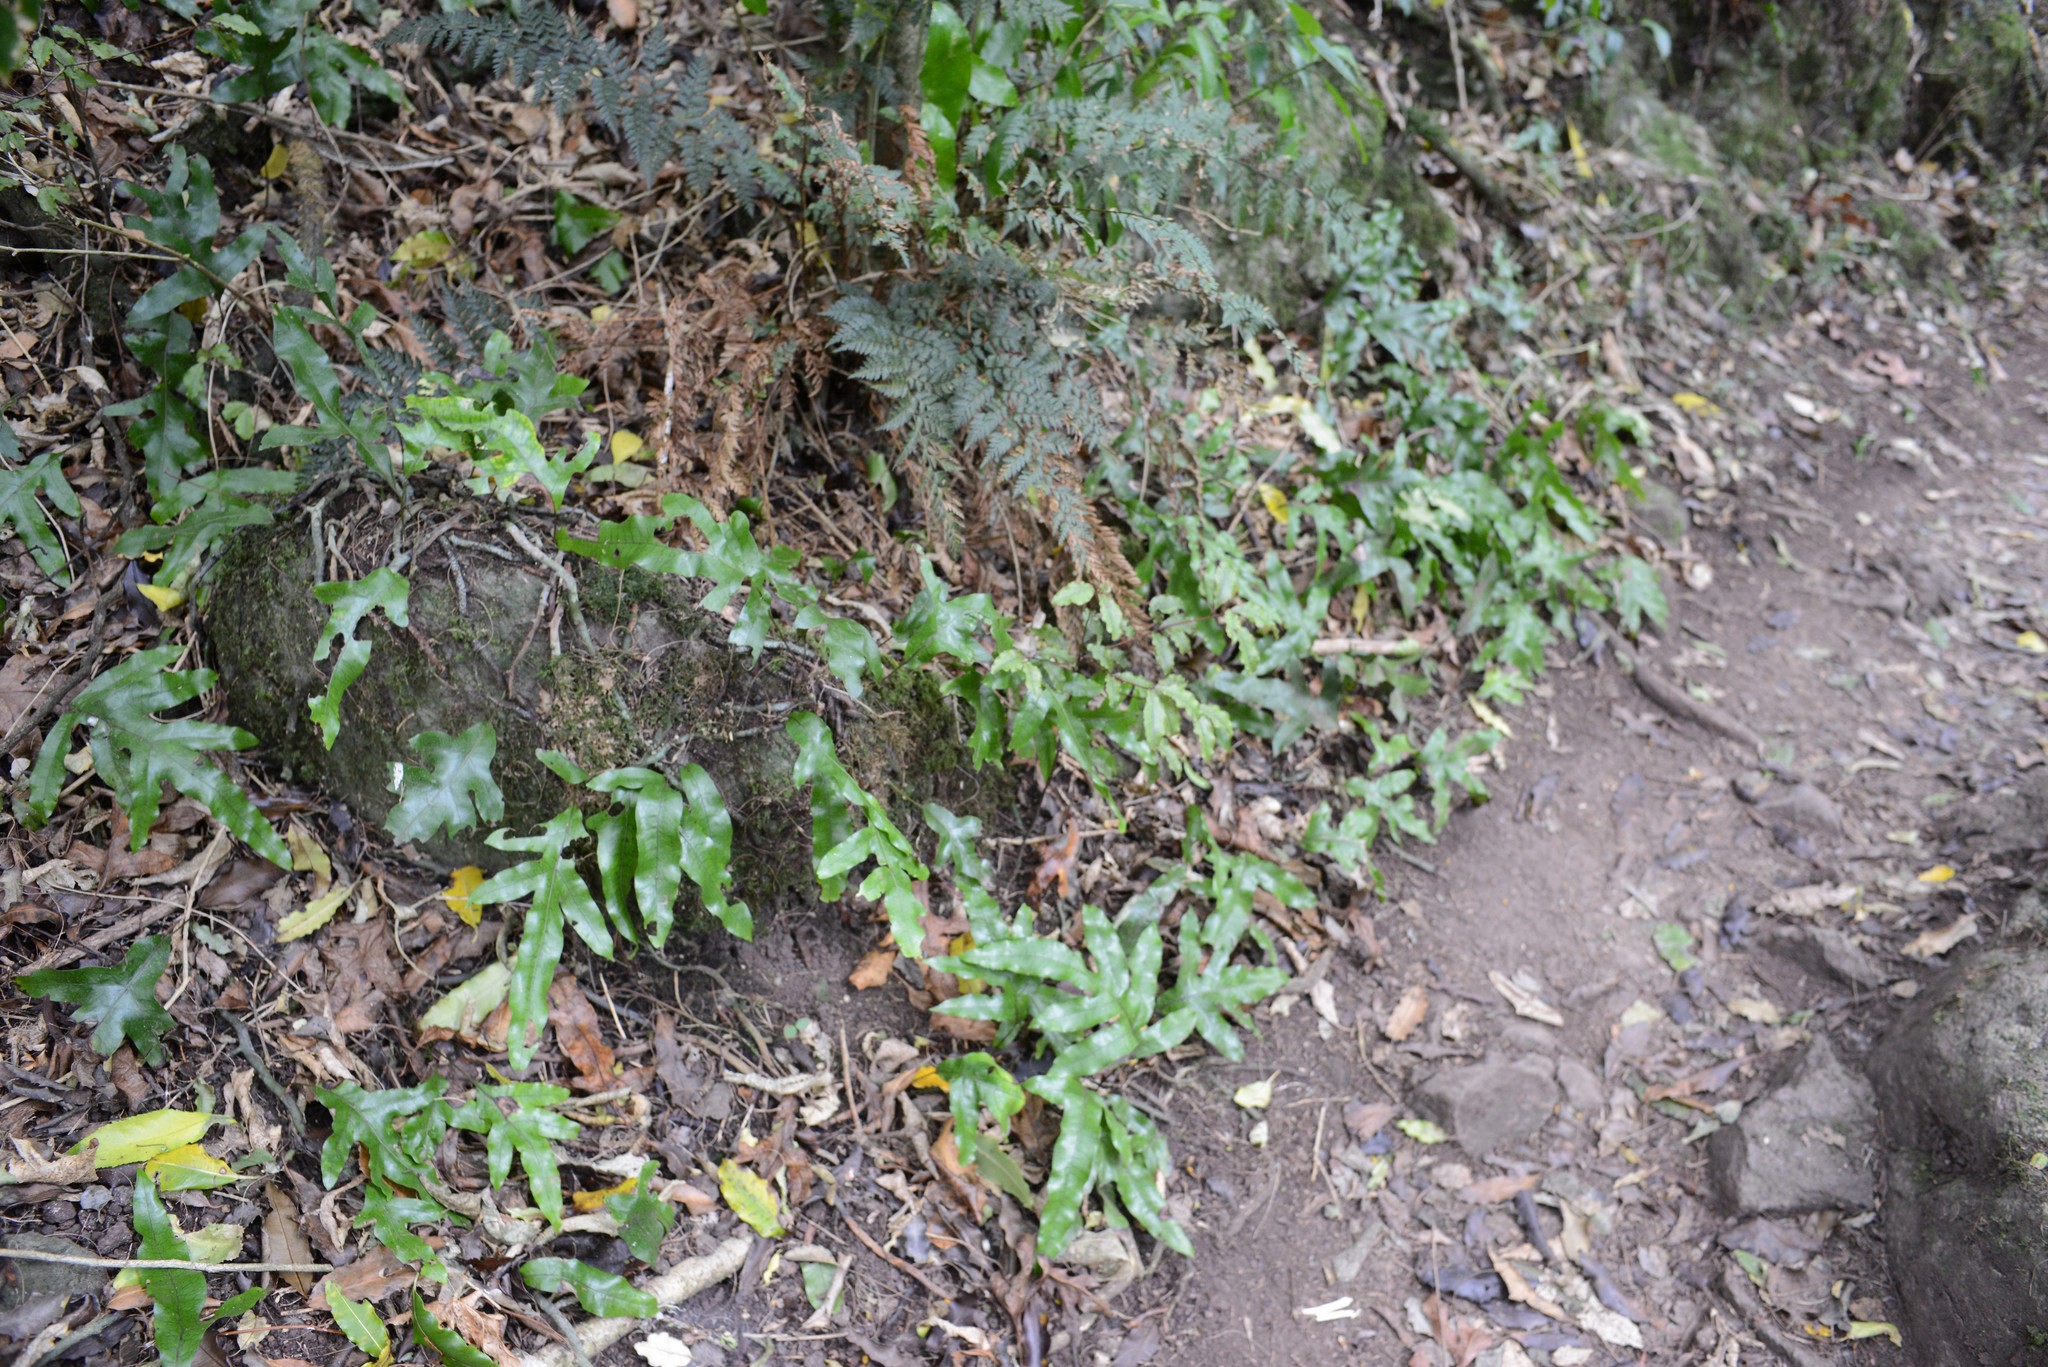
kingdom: Plantae
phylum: Tracheophyta
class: Polypodiopsida
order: Polypodiales
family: Polypodiaceae
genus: Lecanopteris
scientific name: Lecanopteris pustulata
